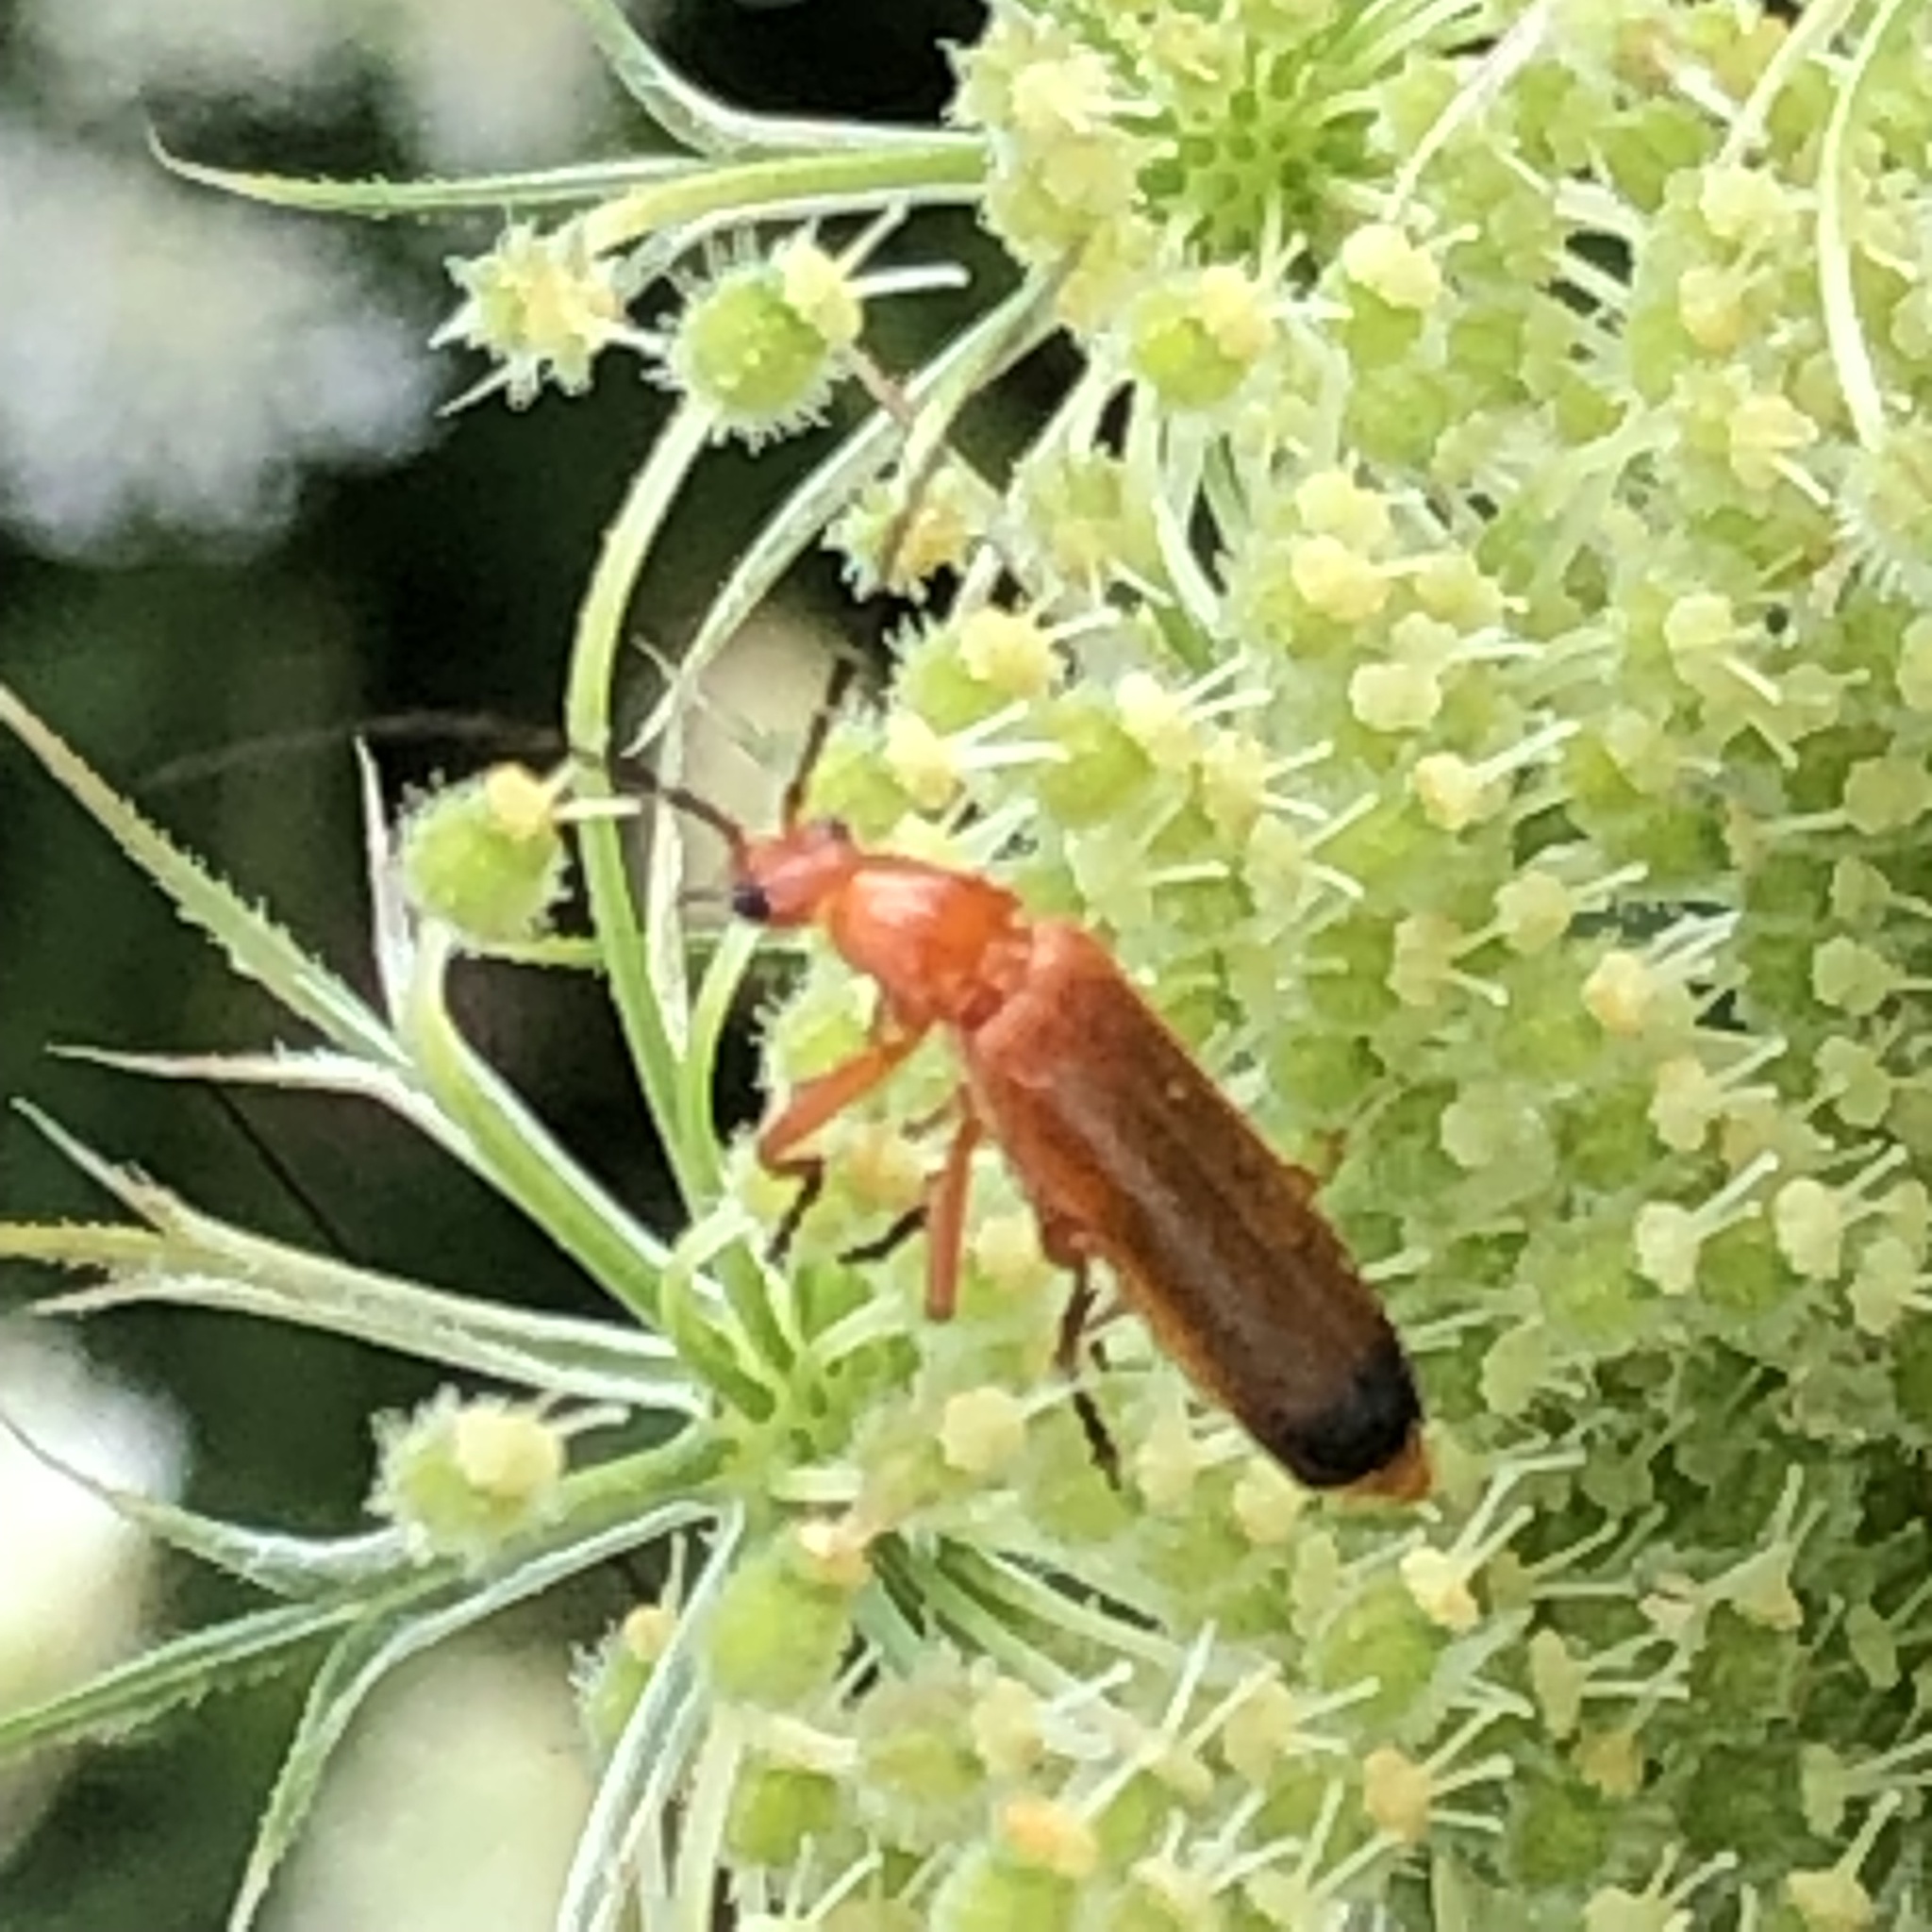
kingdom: Animalia
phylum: Arthropoda
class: Insecta
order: Coleoptera
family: Cantharidae
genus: Rhagonycha
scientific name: Rhagonycha fulva
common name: Common red soldier beetle
